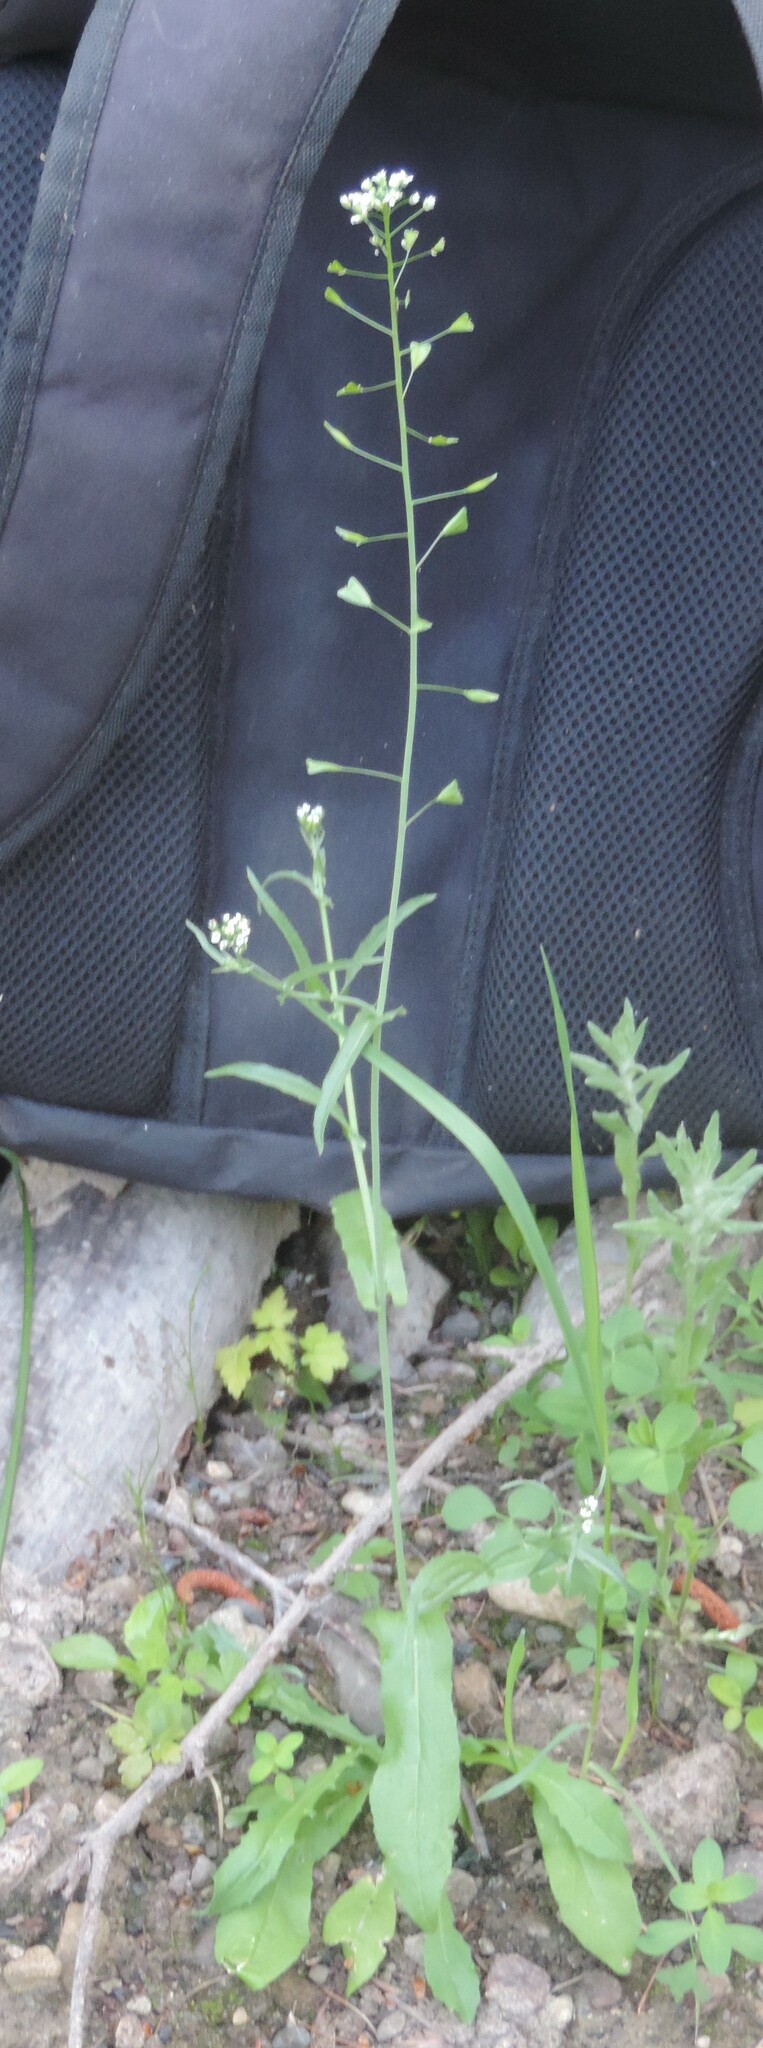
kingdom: Plantae
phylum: Tracheophyta
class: Magnoliopsida
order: Brassicales
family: Brassicaceae
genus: Capsella
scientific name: Capsella bursa-pastoris
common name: Shepherd's purse
